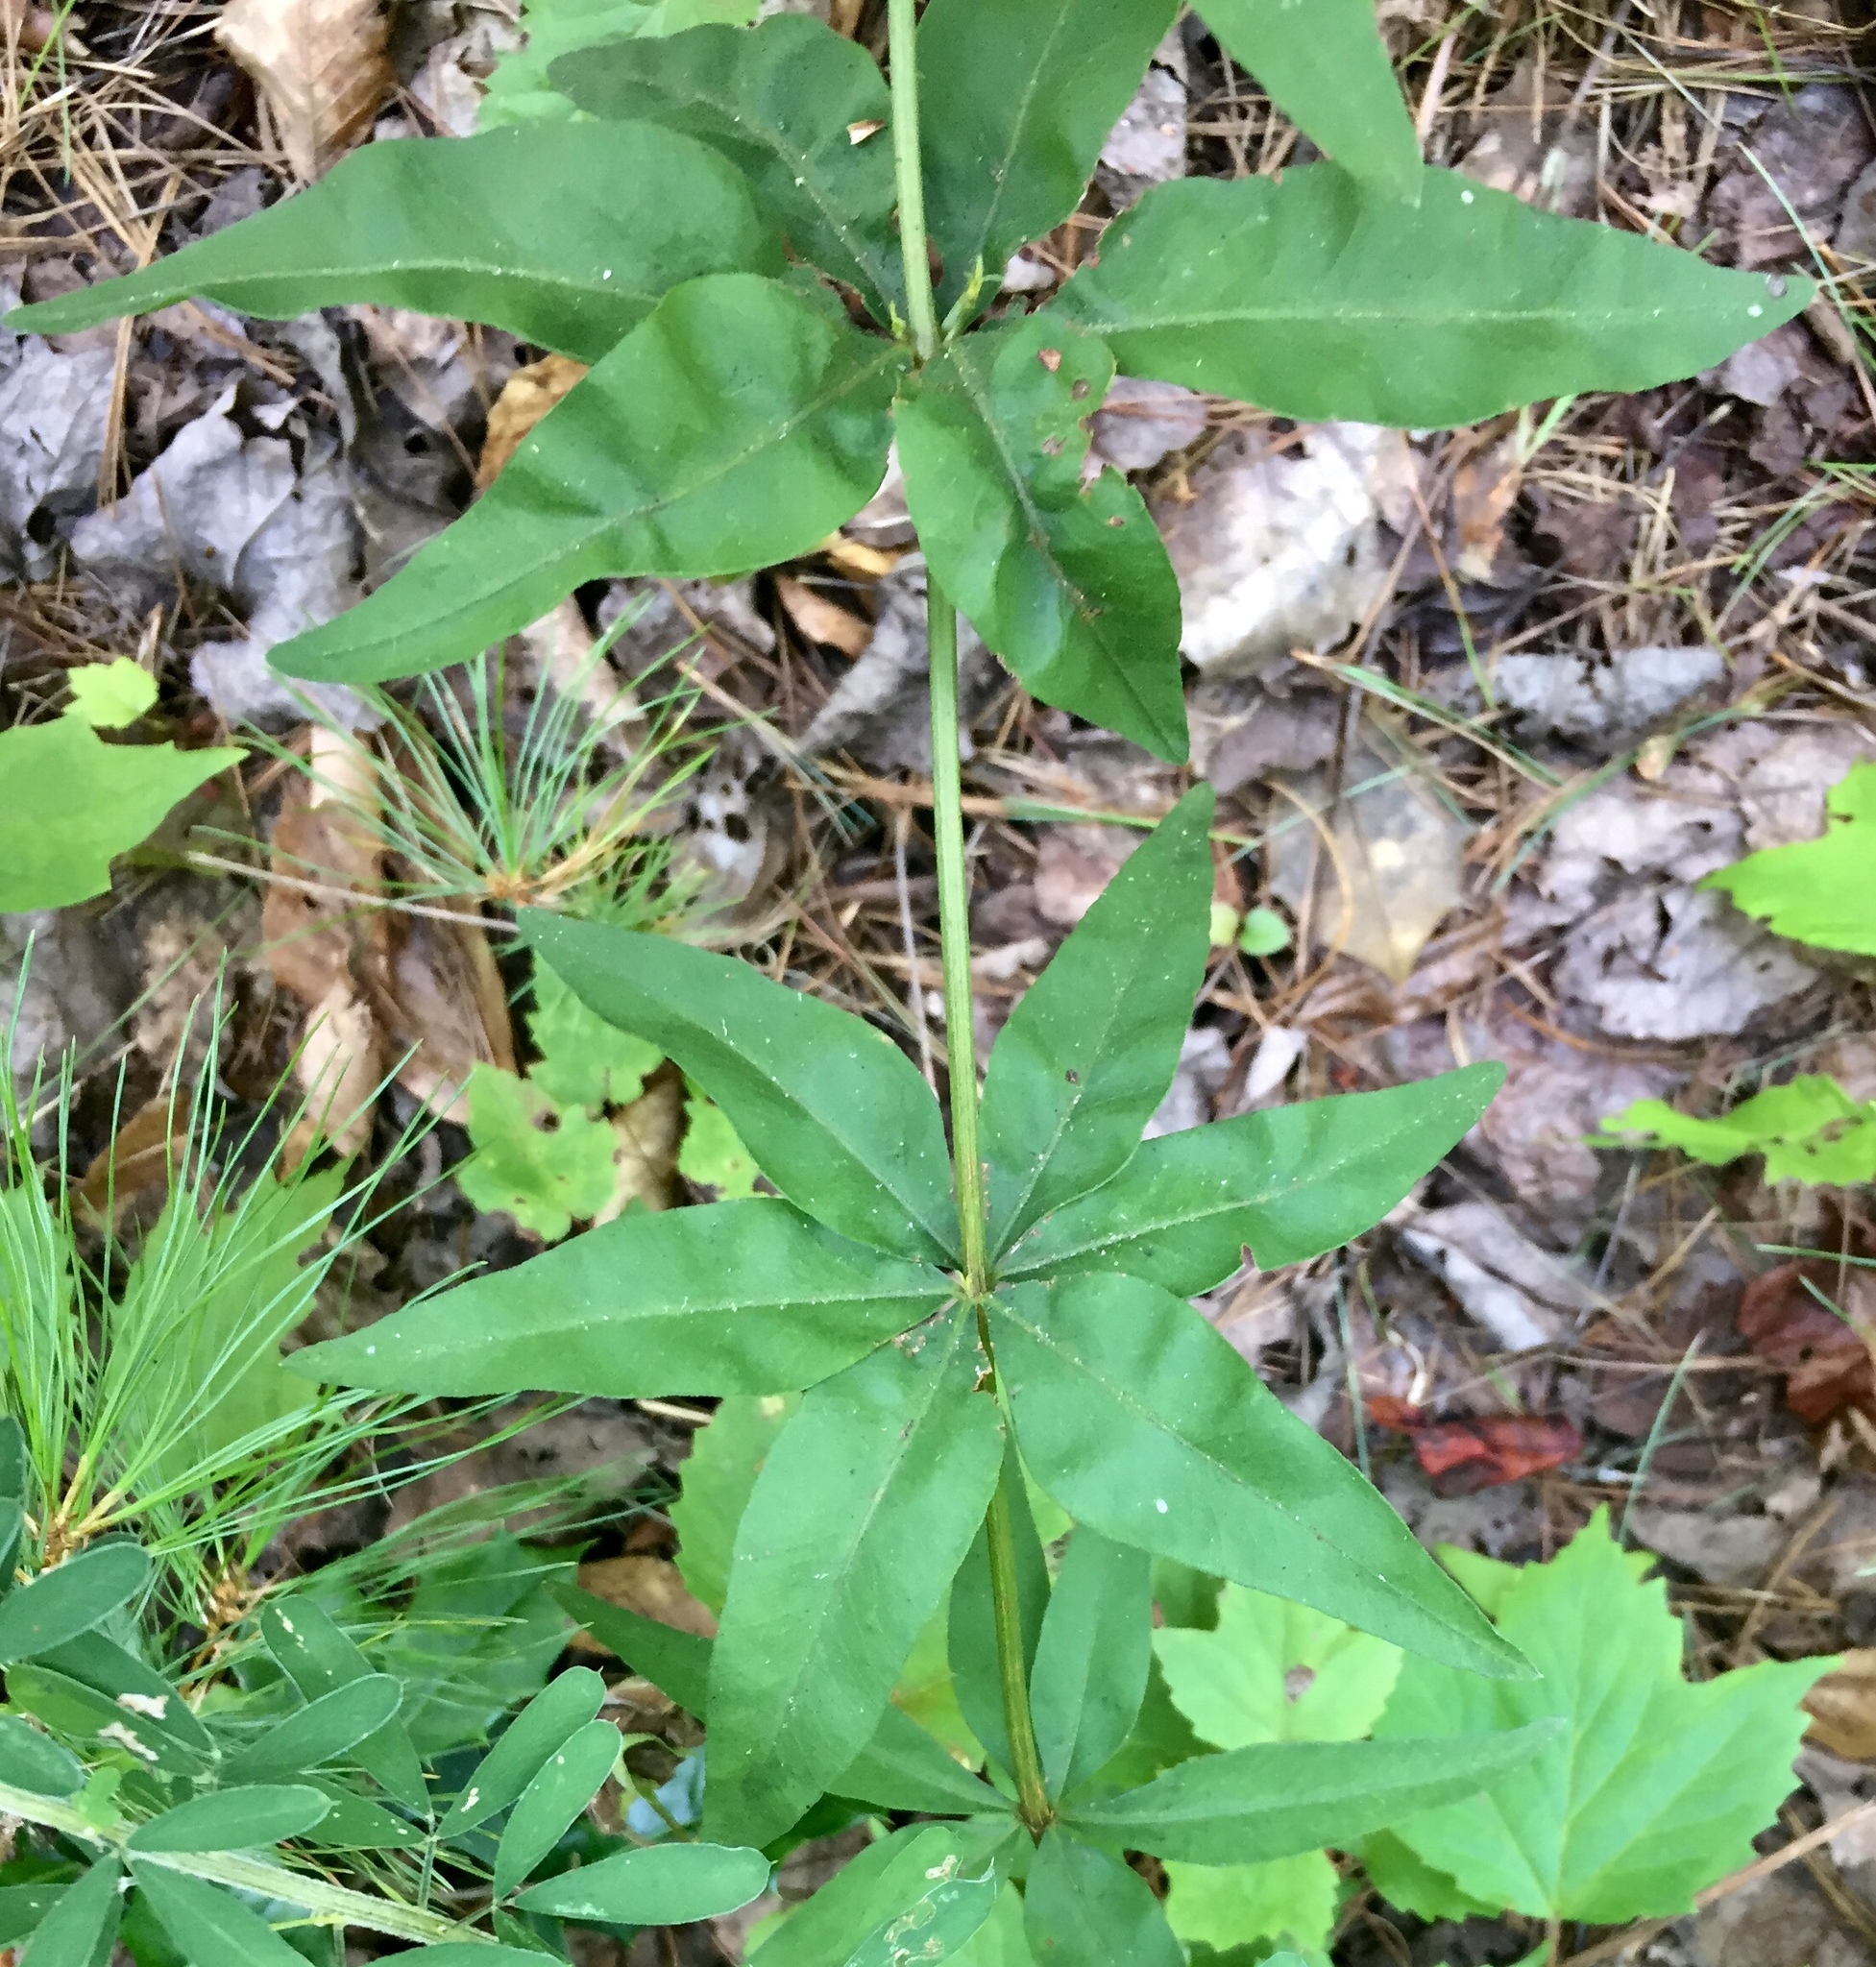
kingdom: Plantae
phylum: Tracheophyta
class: Magnoliopsida
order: Asterales
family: Asteraceae
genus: Coreopsis
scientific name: Coreopsis major
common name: Forest tickseed
